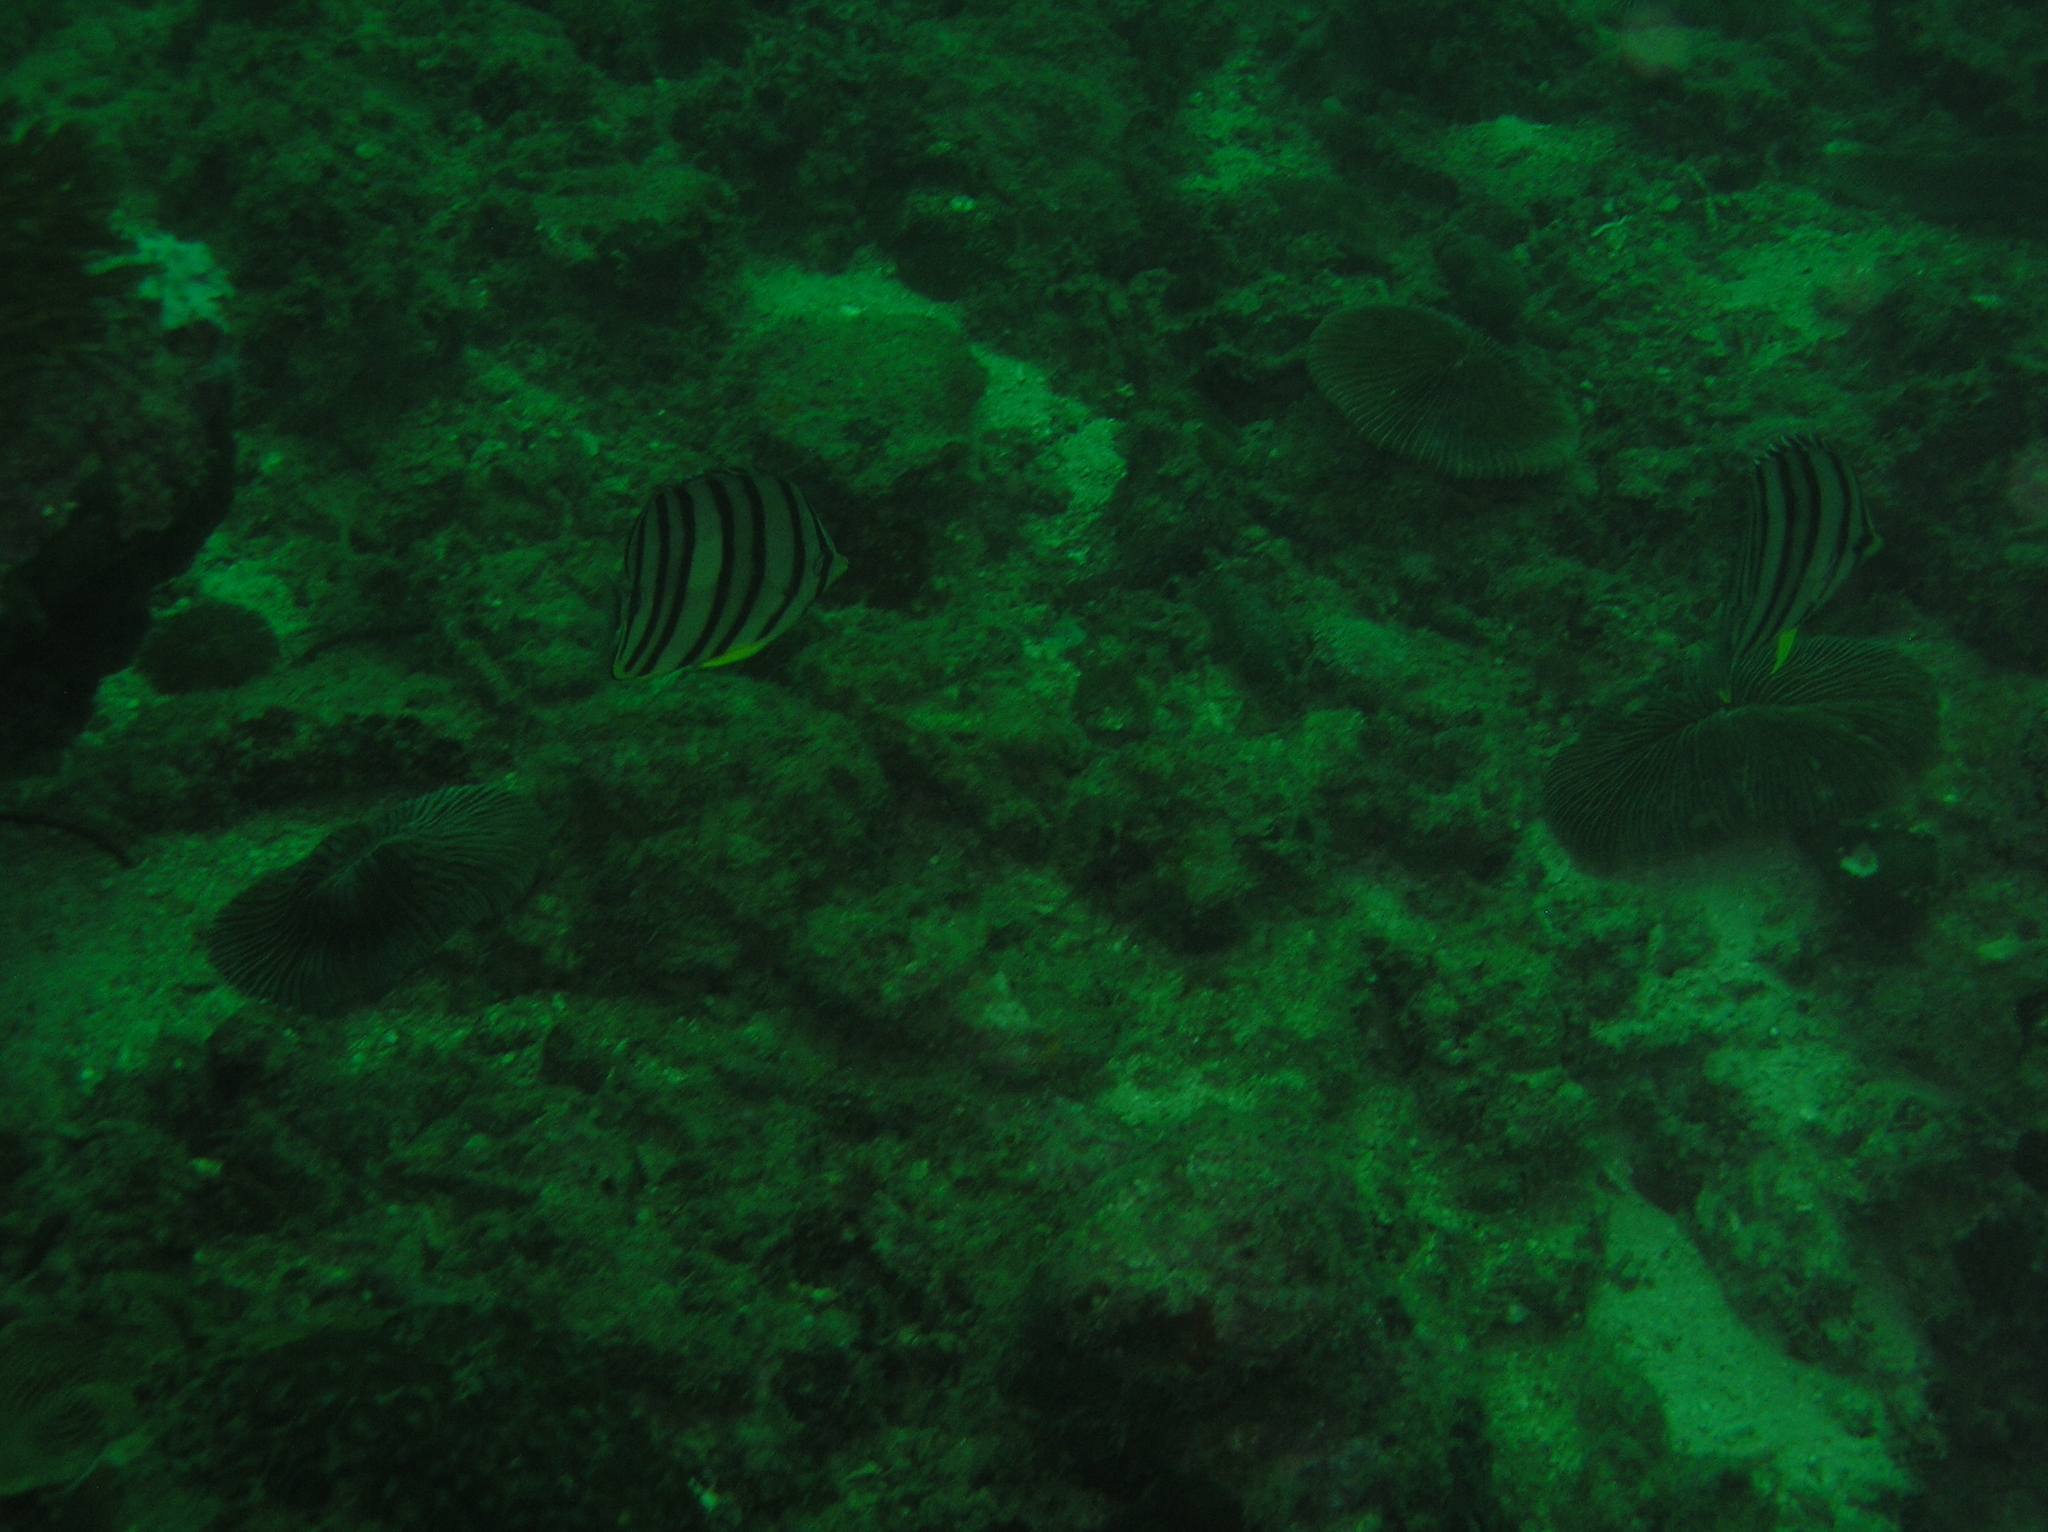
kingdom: Animalia
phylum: Chordata
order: Perciformes
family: Chaetodontidae
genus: Chaetodon
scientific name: Chaetodon octofasciatus
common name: Eightband butterflyfish
